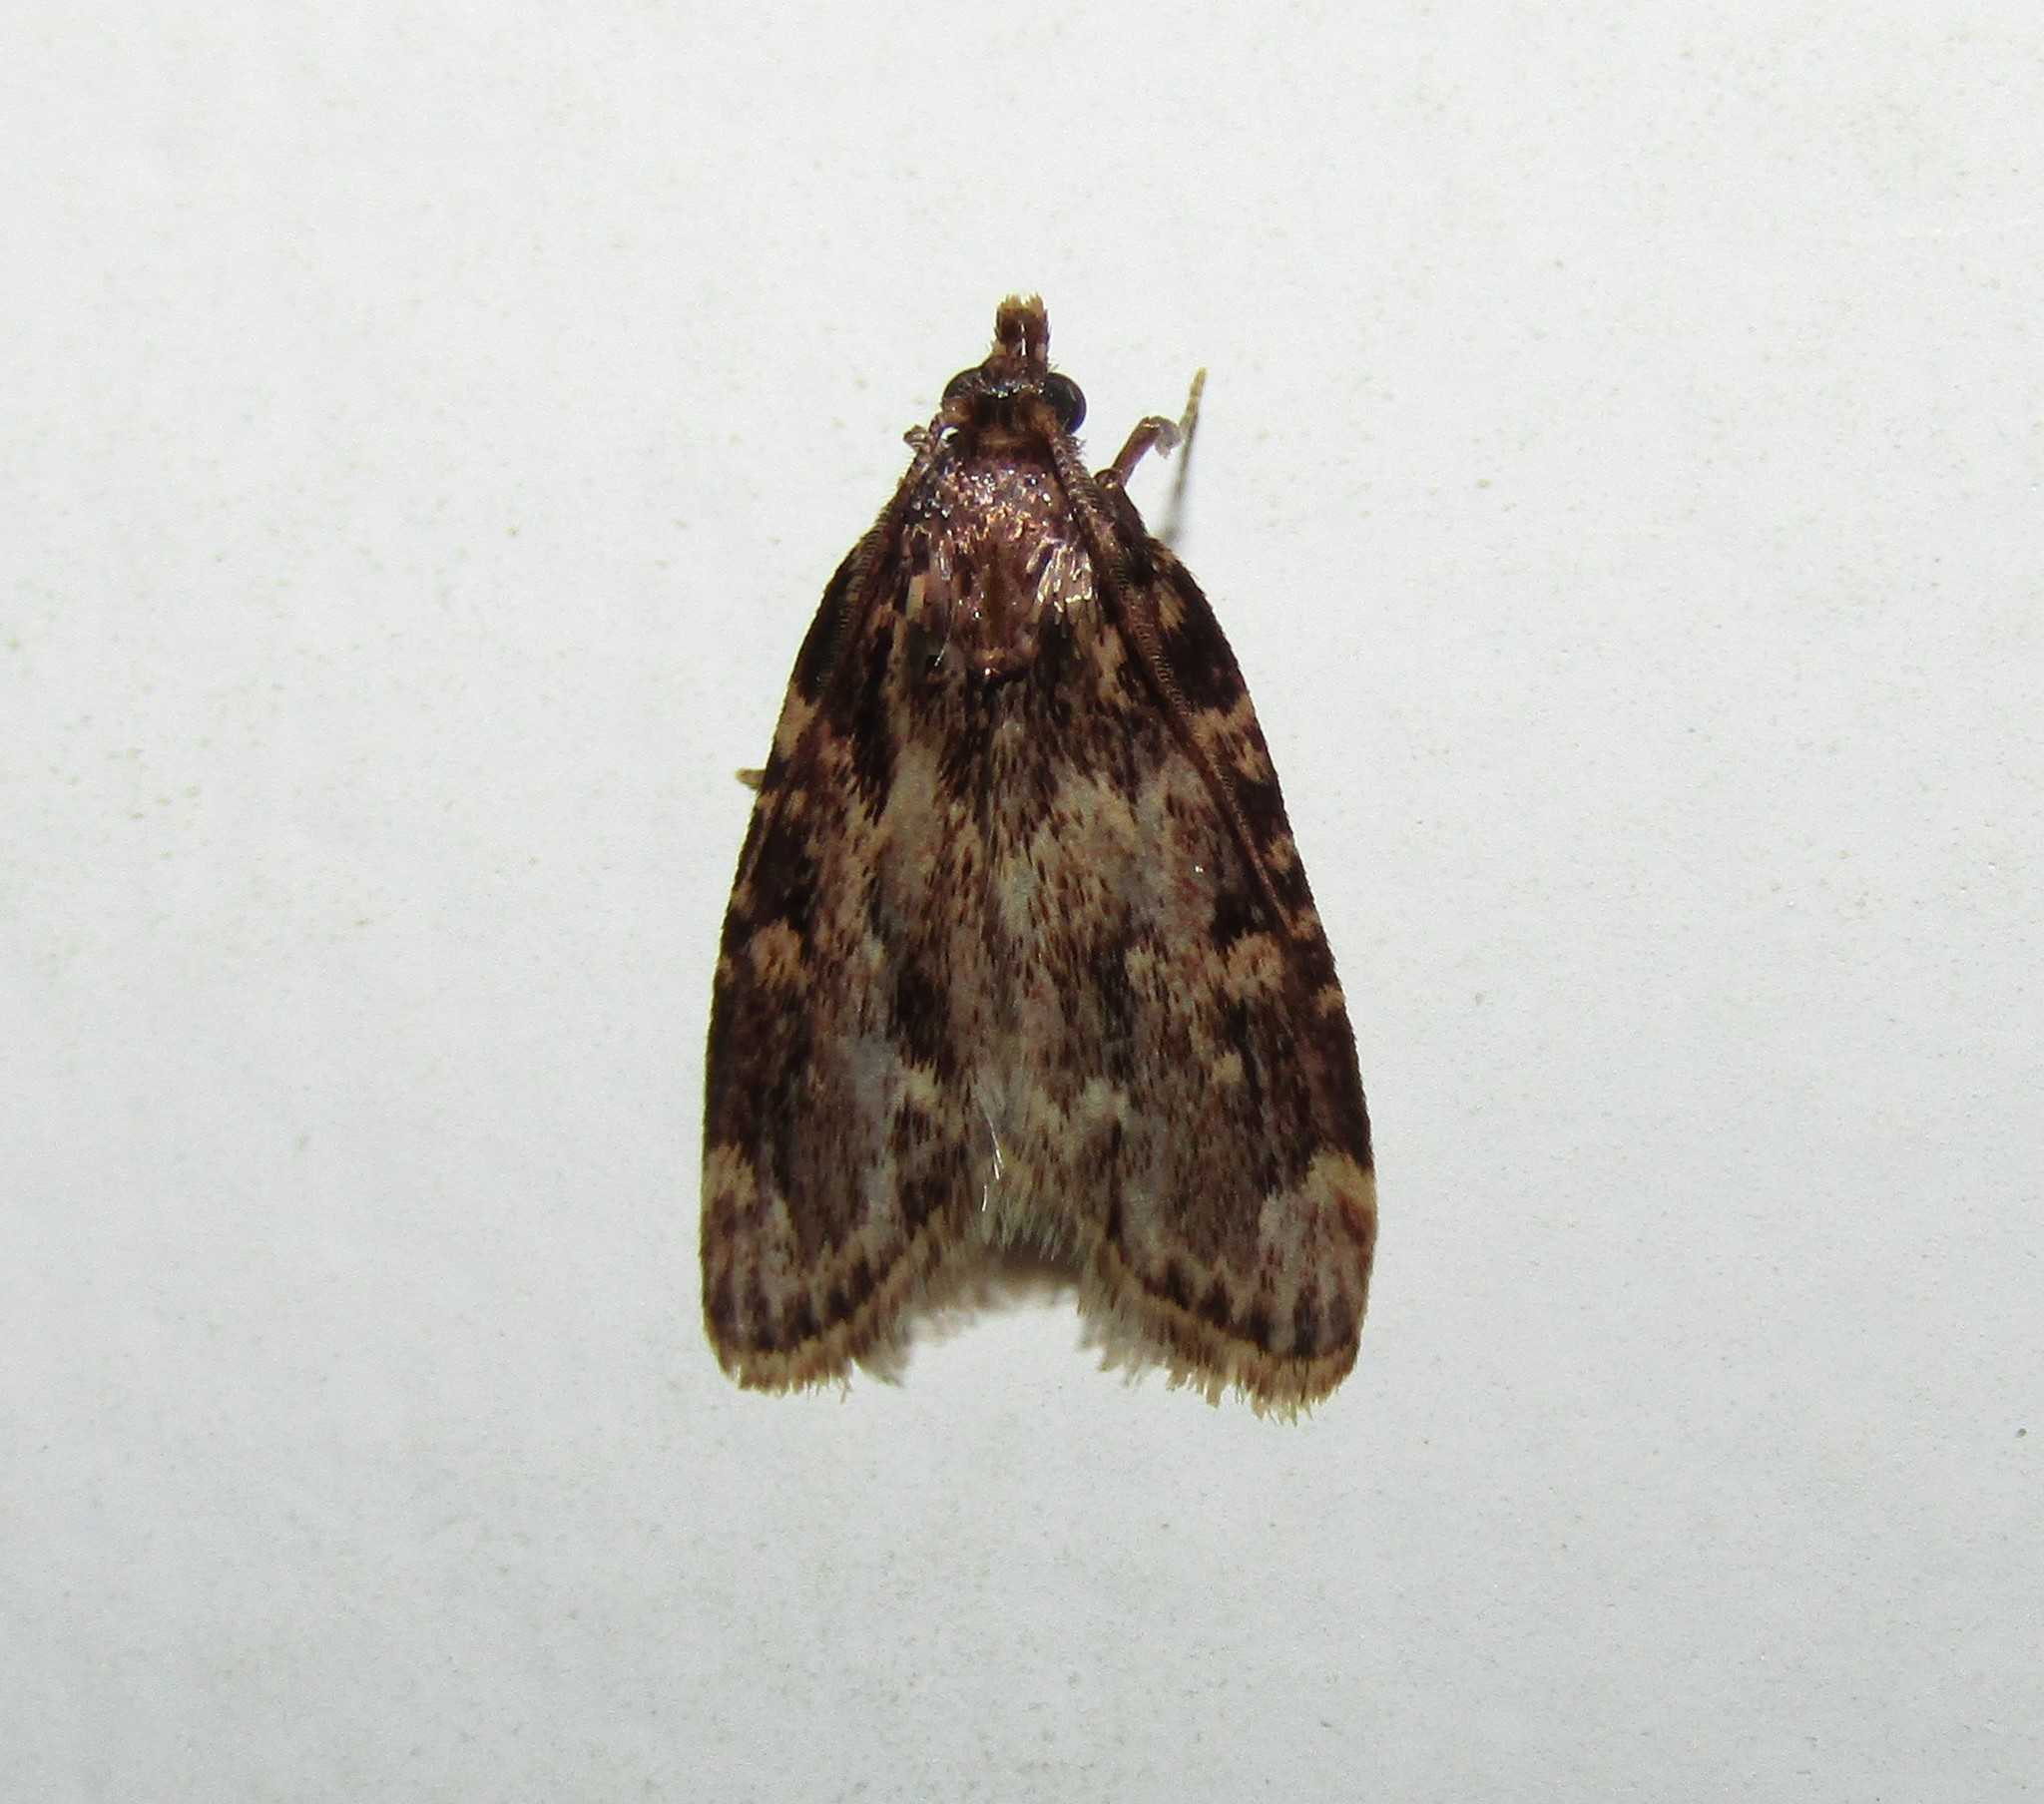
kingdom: Animalia
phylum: Arthropoda
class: Insecta
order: Lepidoptera
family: Pyralidae
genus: Aglossa
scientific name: Aglossa caprealis
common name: Small tabby
